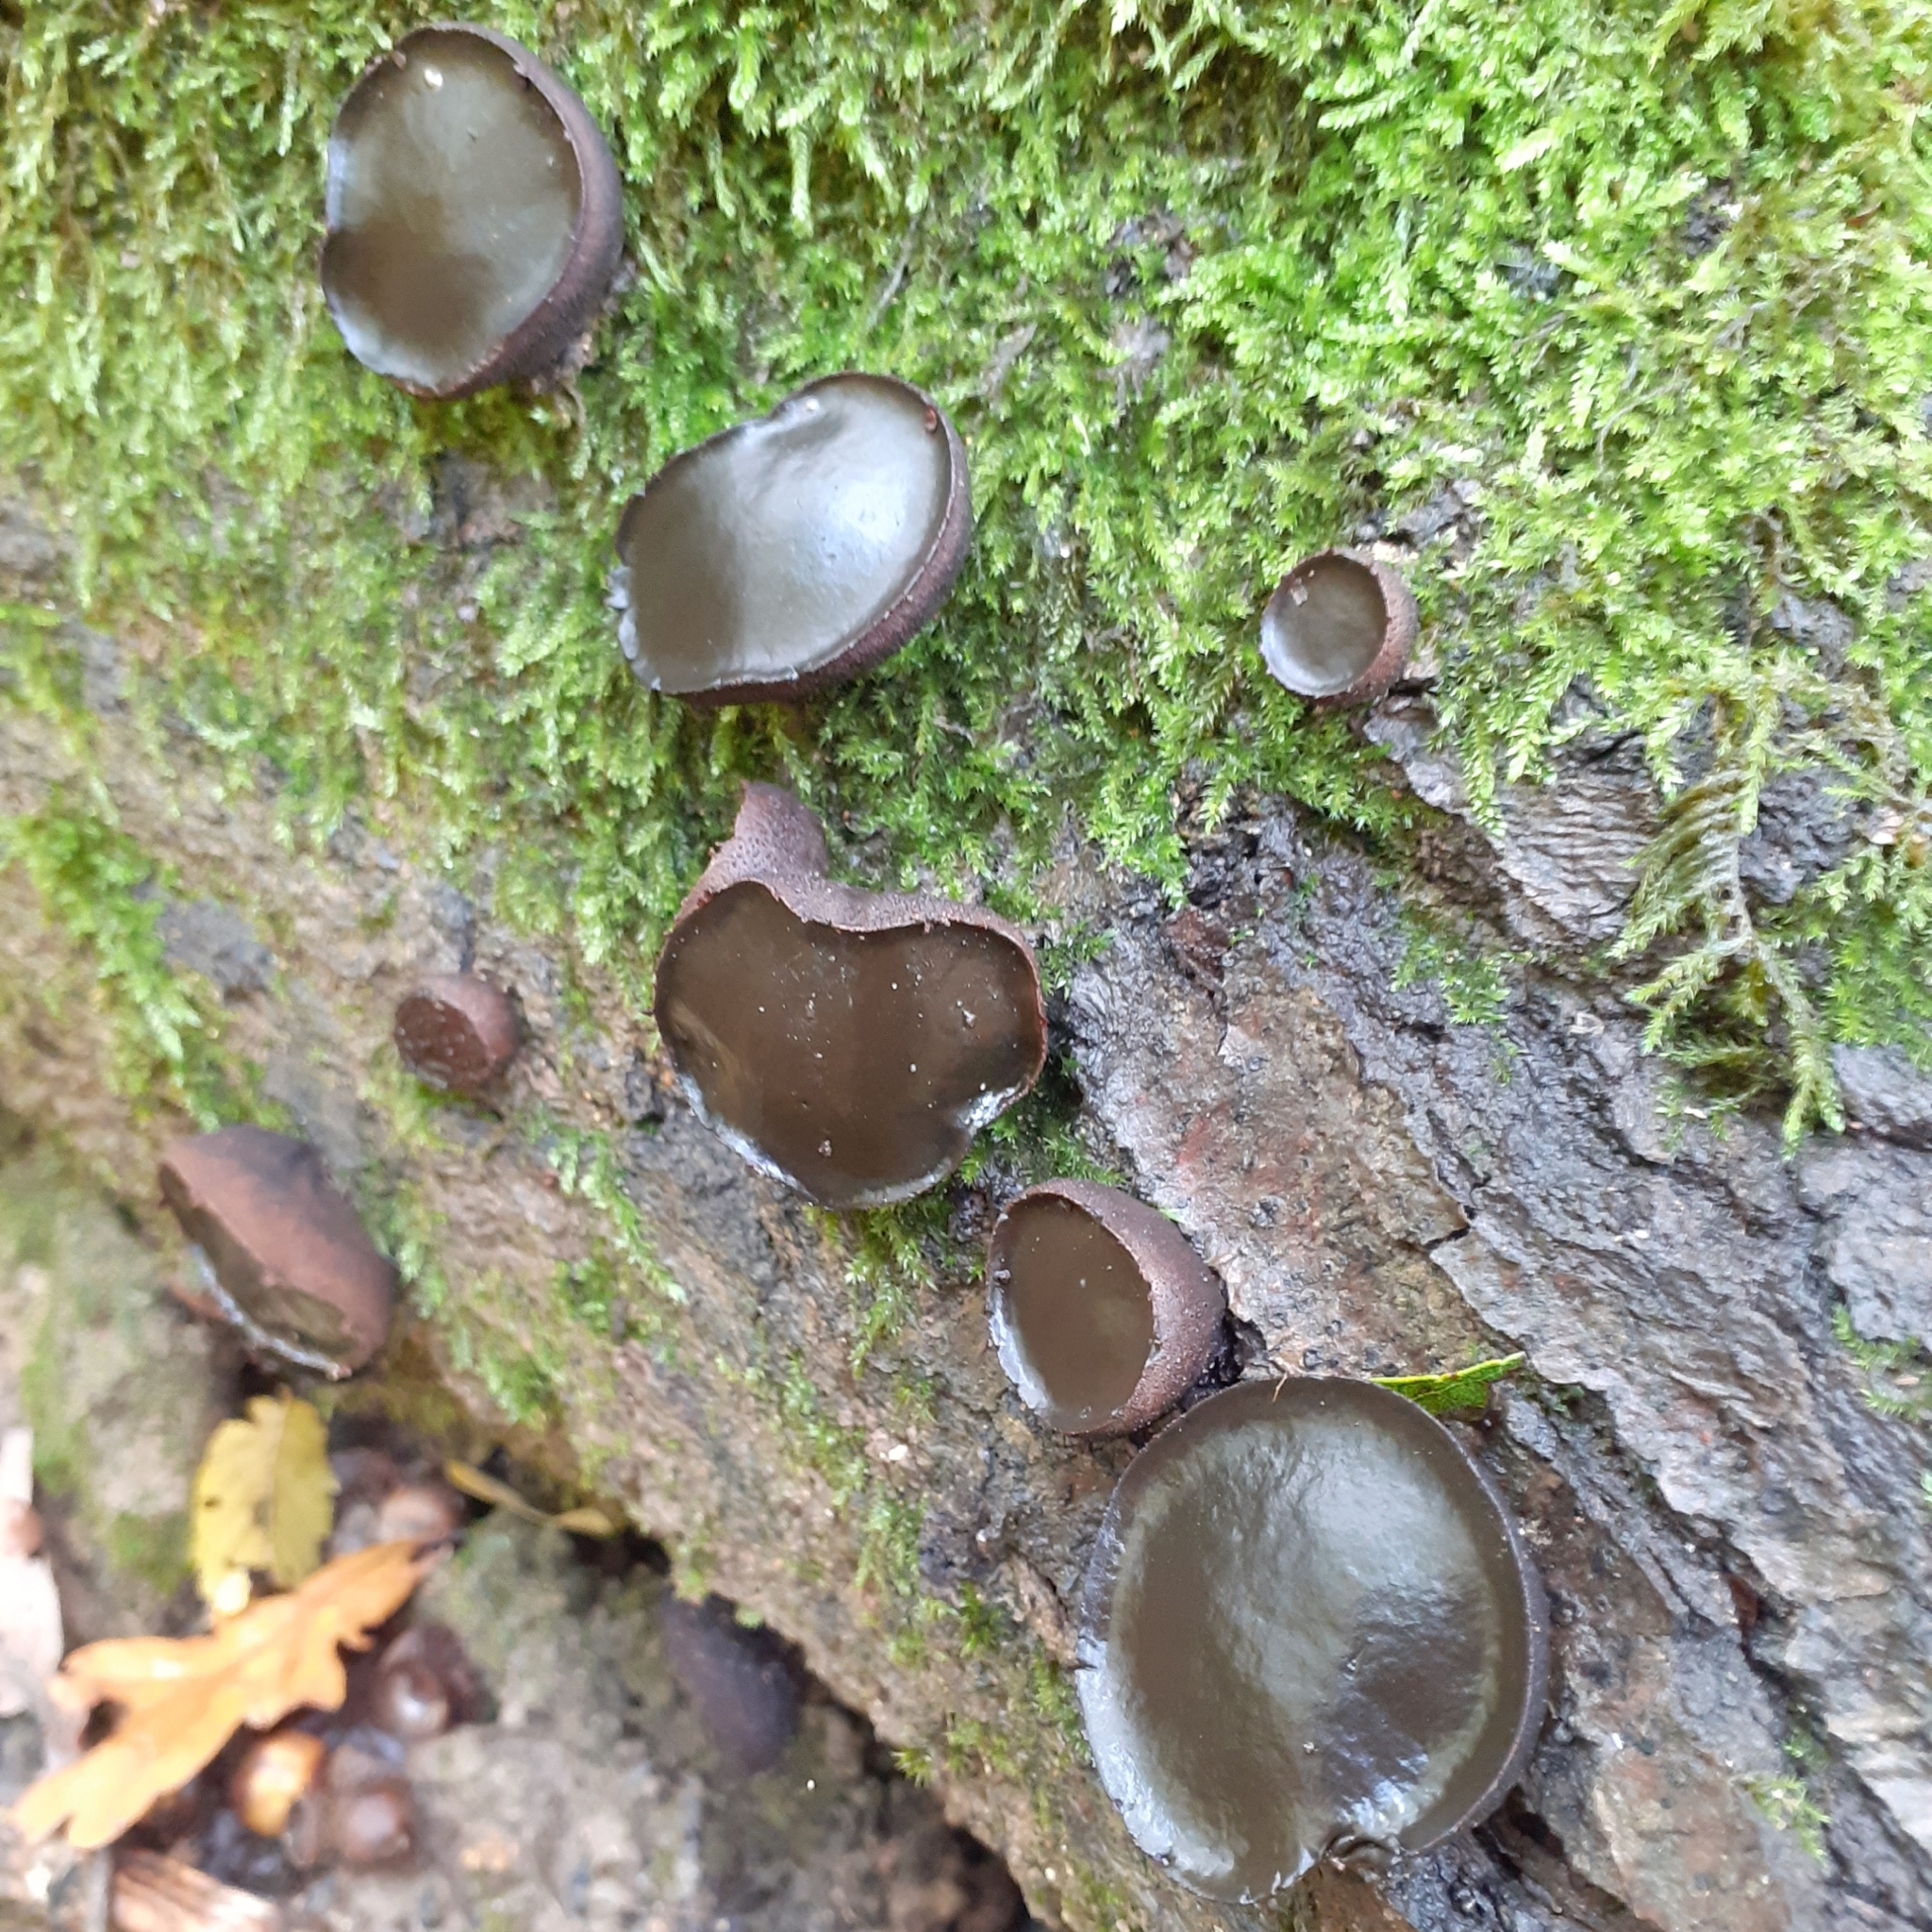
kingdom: Fungi
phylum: Ascomycota
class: Leotiomycetes
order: Phacidiales
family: Phacidiaceae
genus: Bulgaria
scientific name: Bulgaria inquinans
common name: Black bulgar
